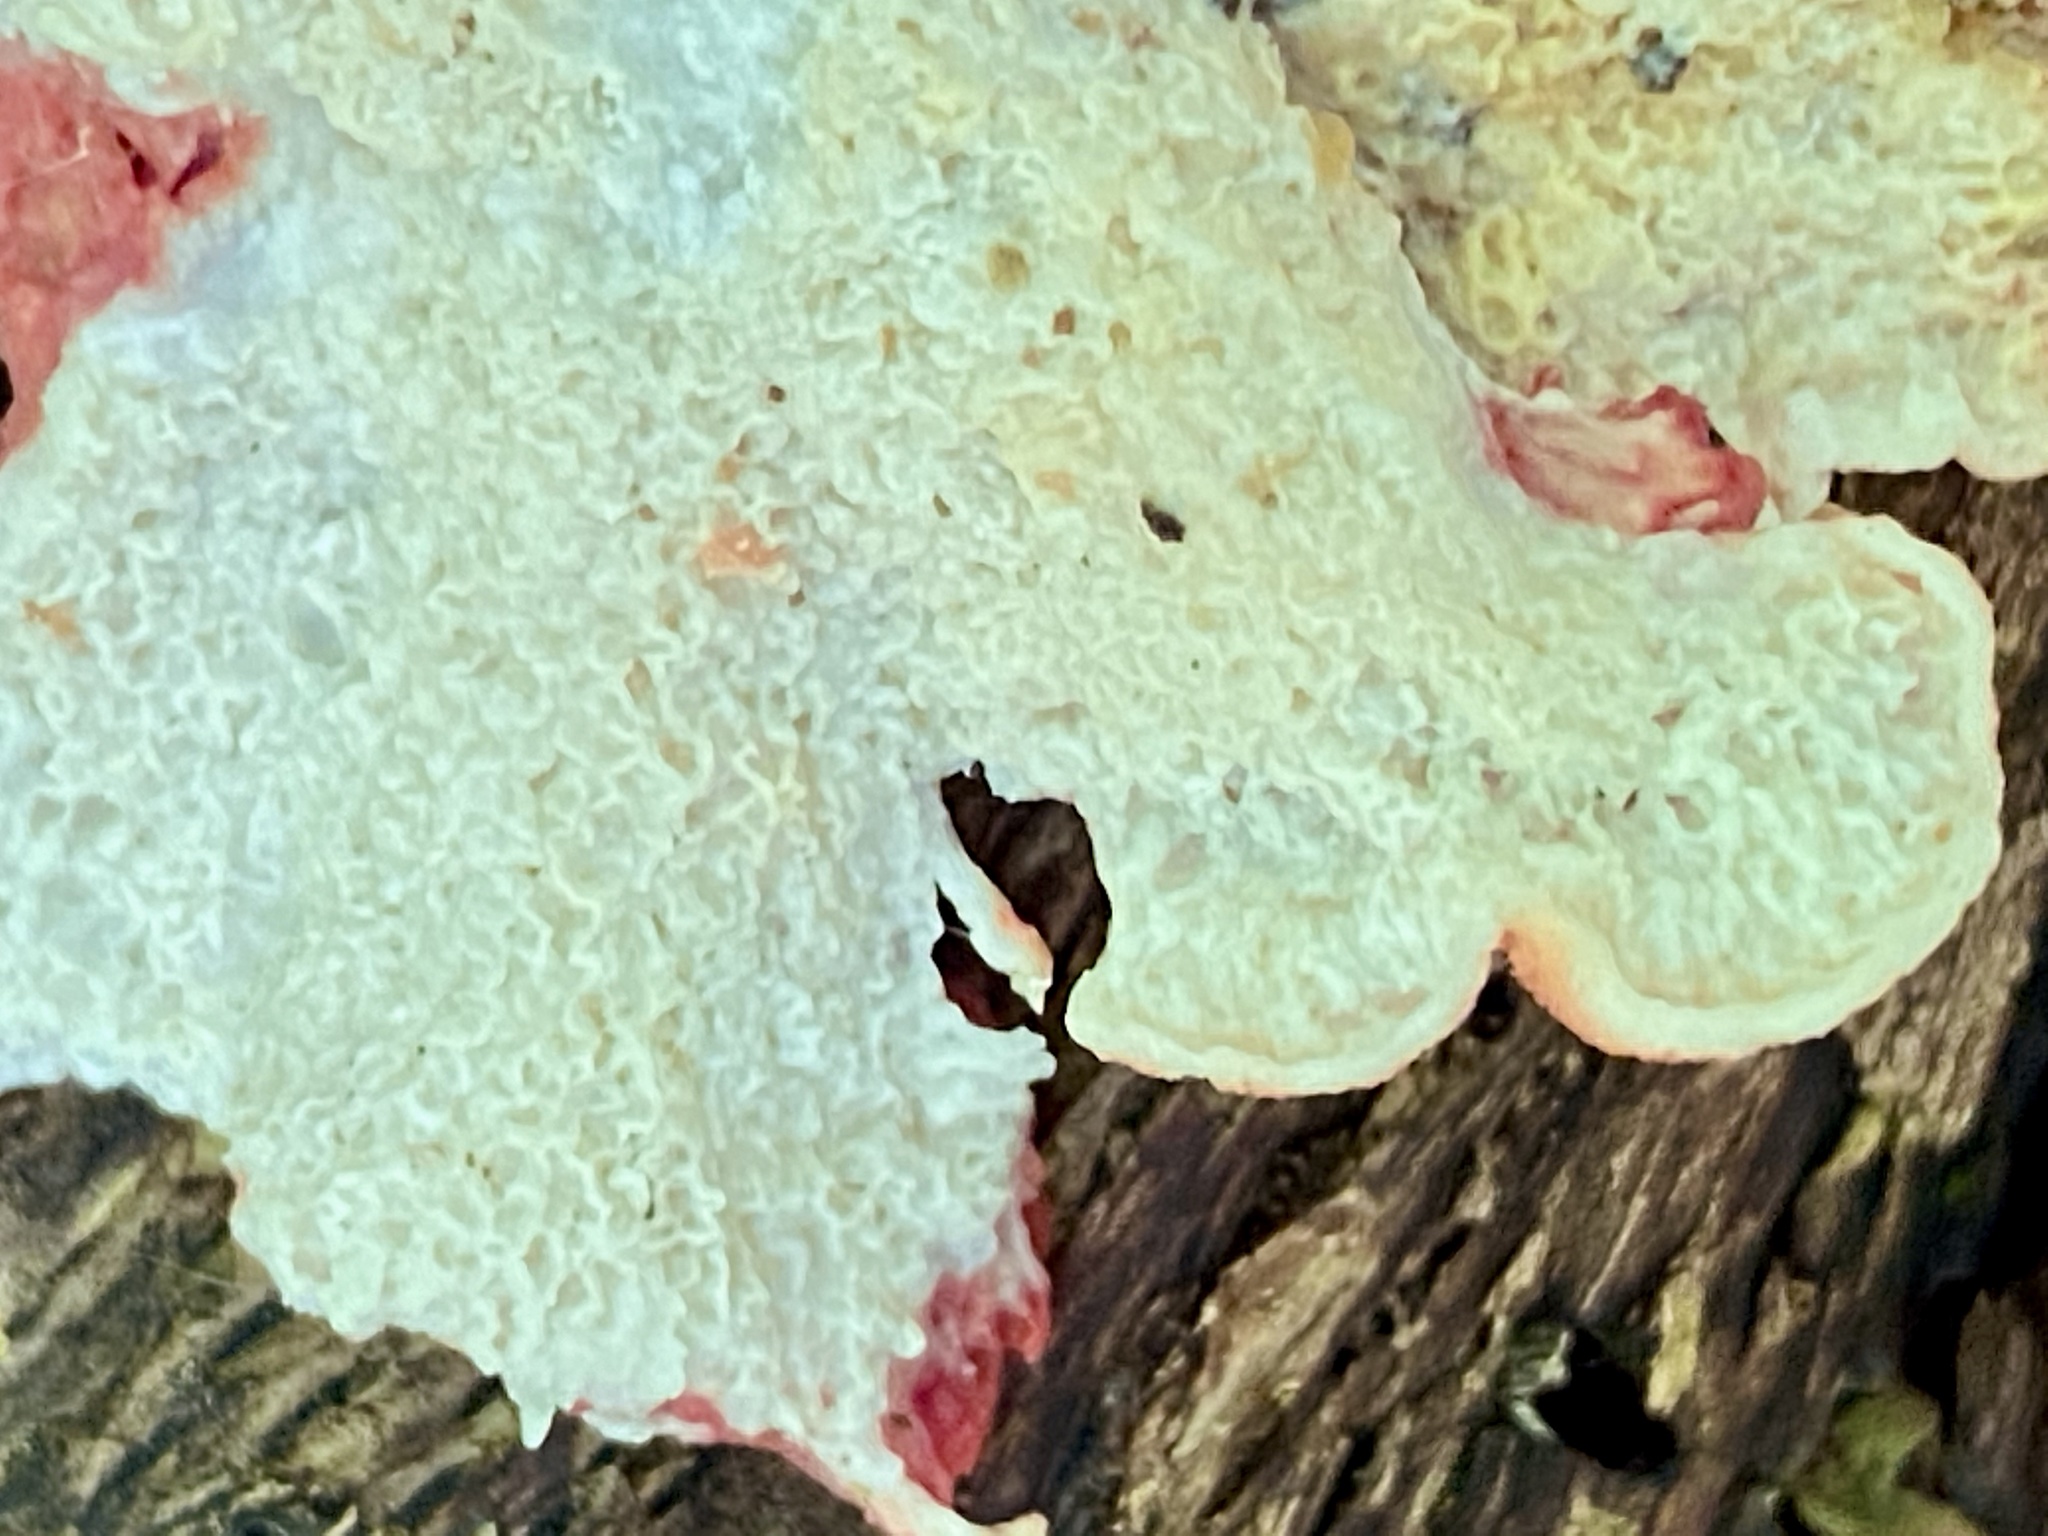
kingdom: Fungi
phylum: Basidiomycota
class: Agaricomycetes
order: Polyporales
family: Irpicaceae
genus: Byssomerulius
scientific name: Byssomerulius incarnatus
